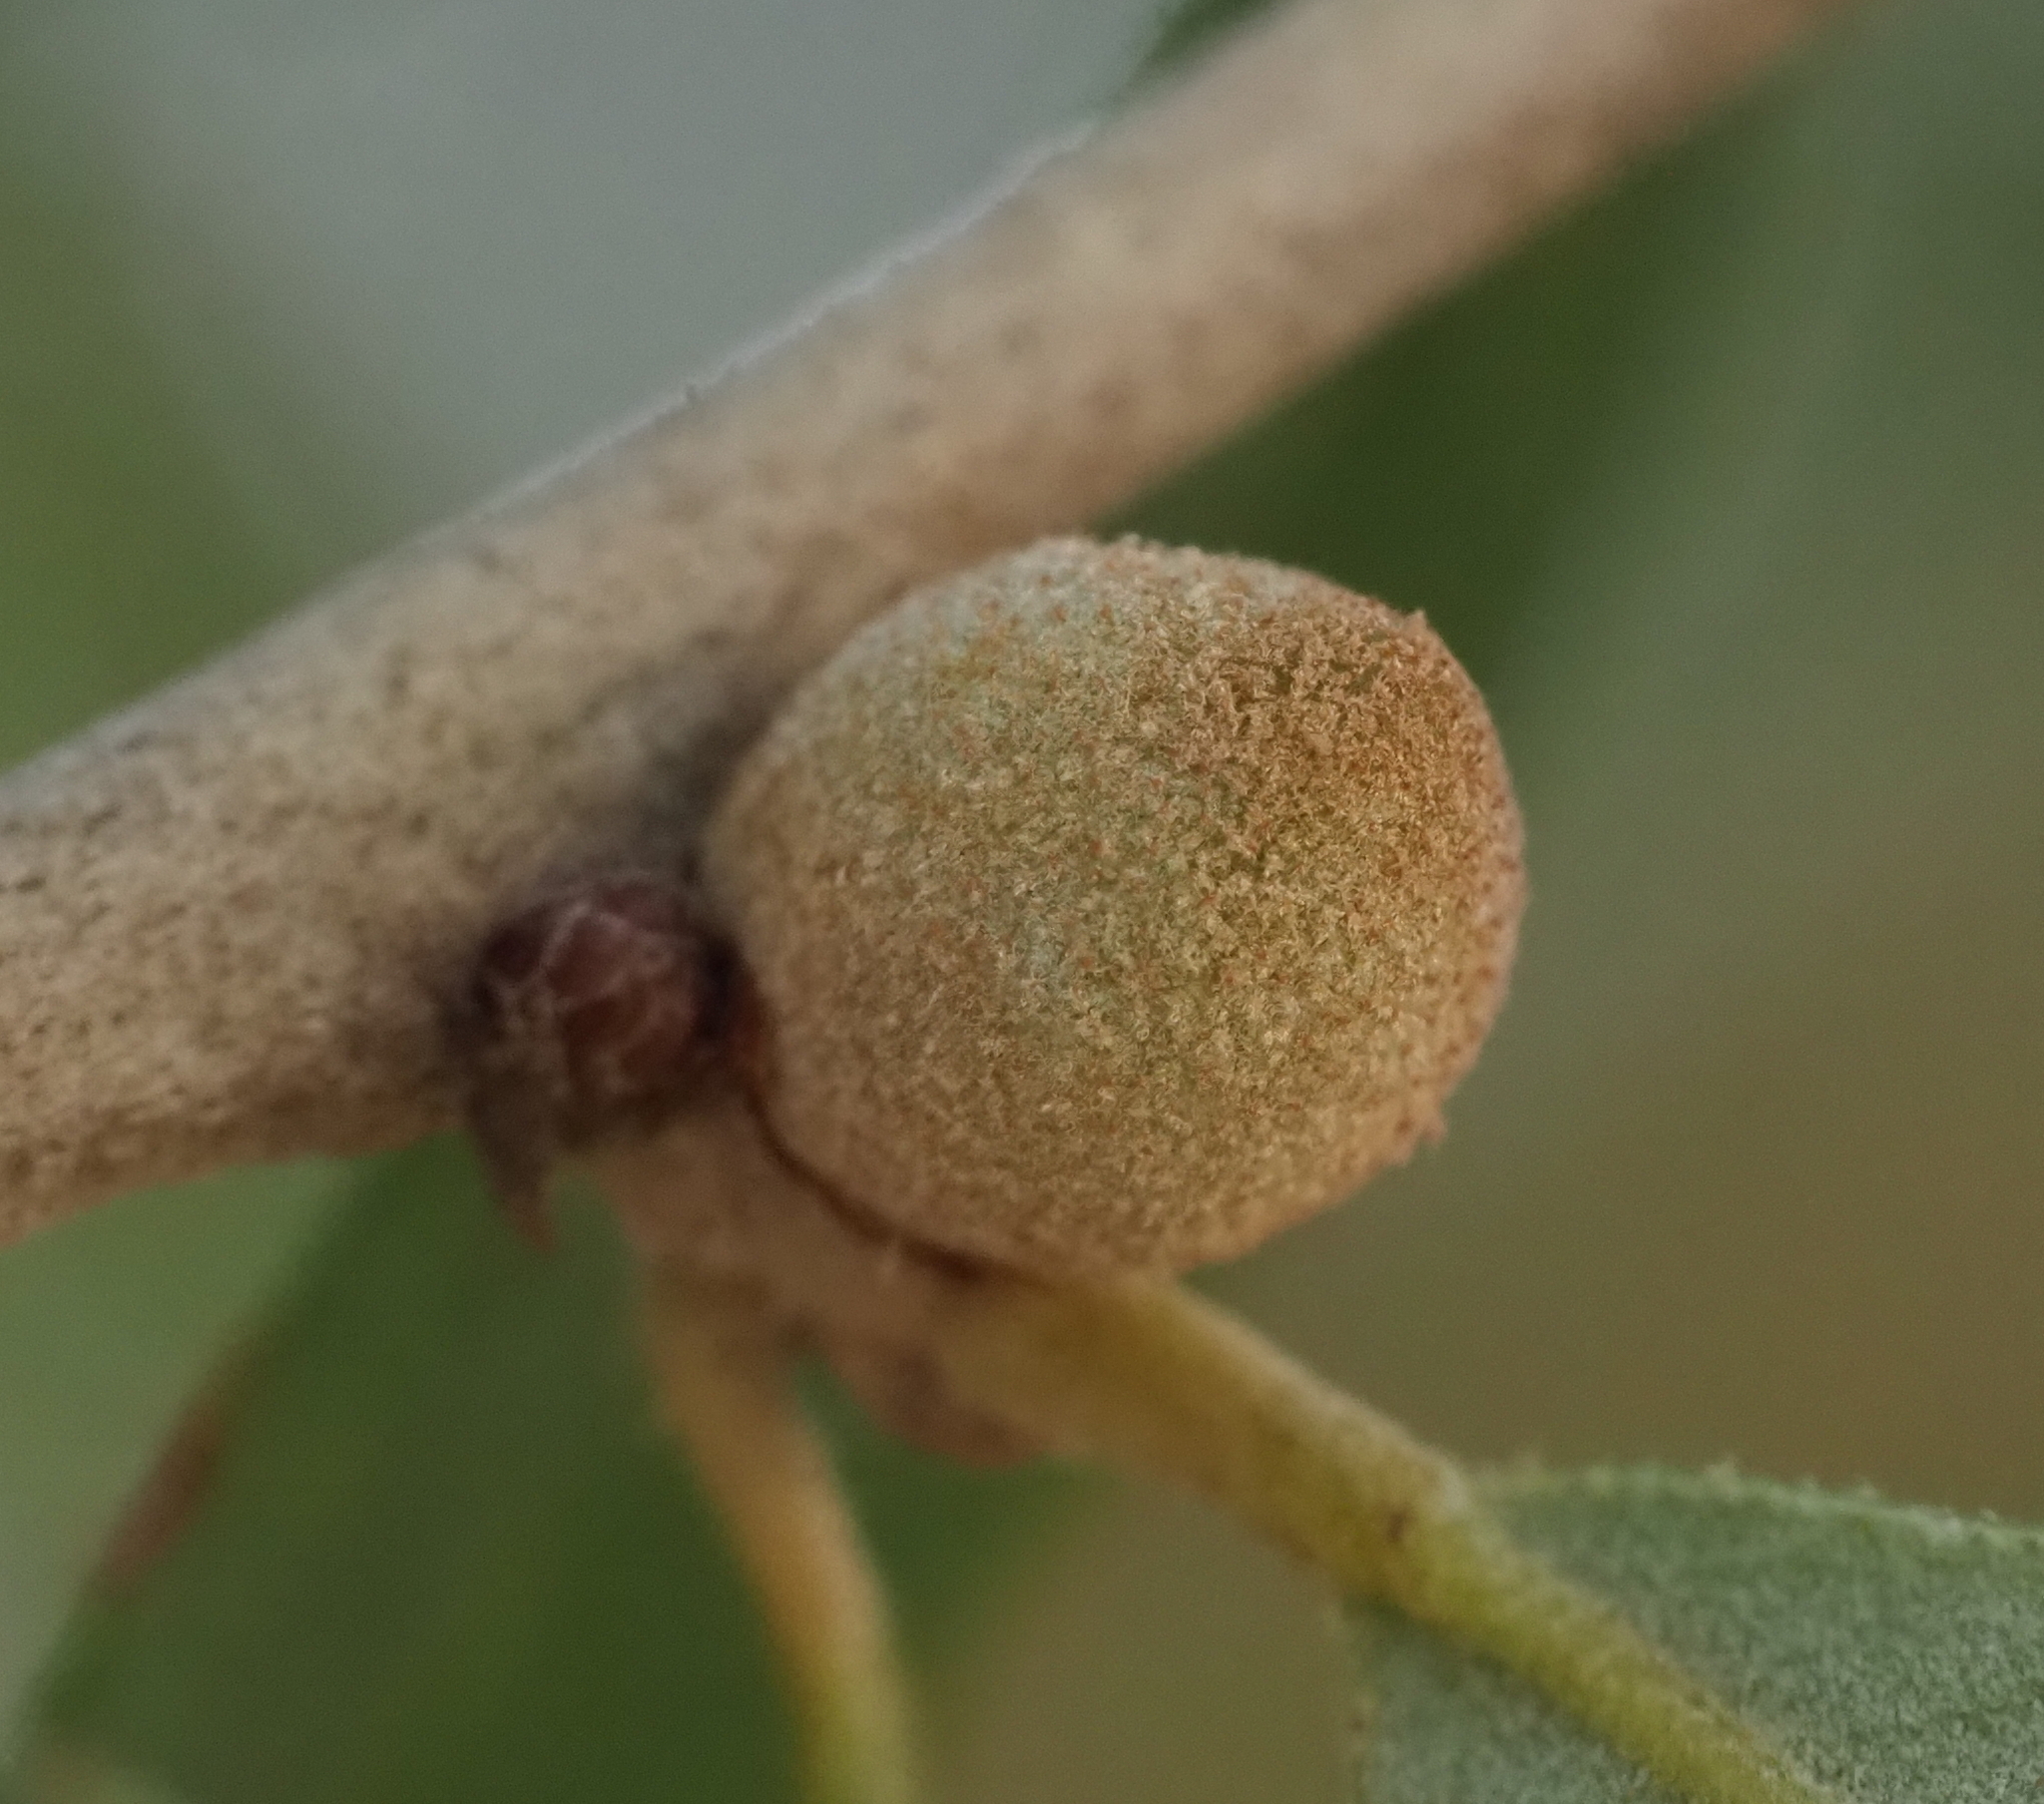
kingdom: Animalia
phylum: Arthropoda
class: Insecta
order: Hymenoptera
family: Cynipidae
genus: Disholcaspis
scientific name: Disholcaspis
